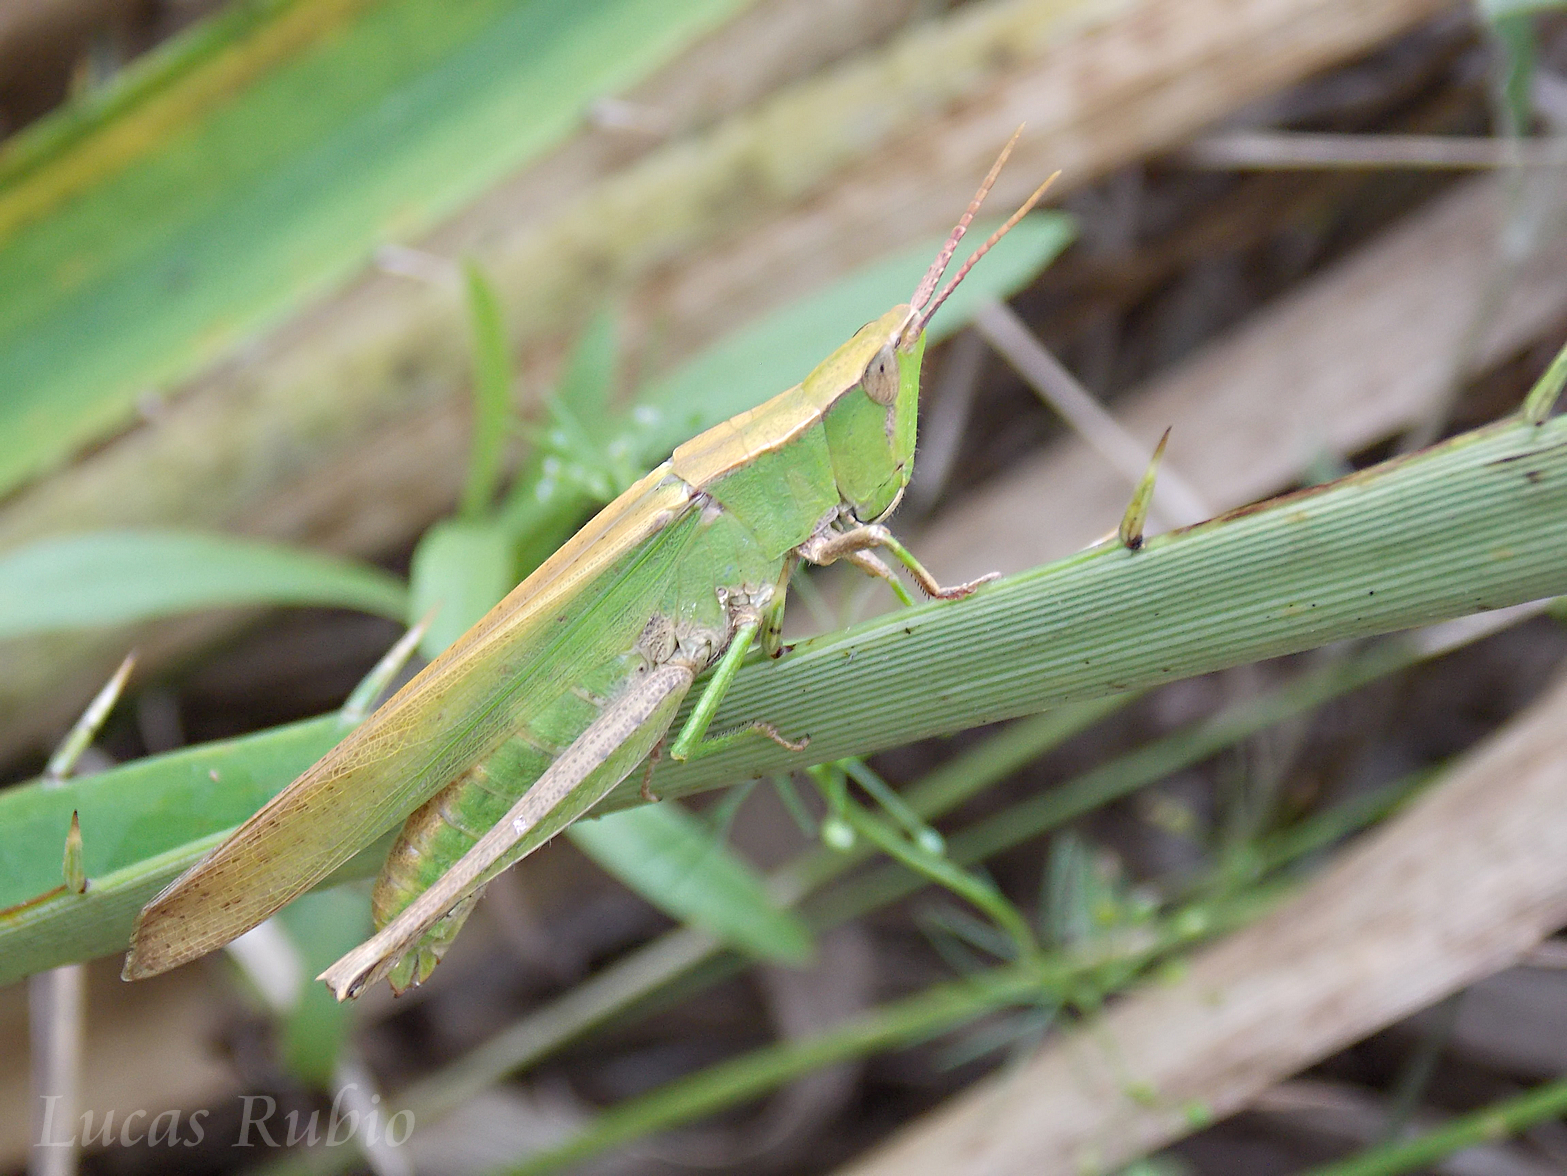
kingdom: Animalia
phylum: Arthropoda
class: Insecta
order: Orthoptera
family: Acrididae
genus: Metaleptea
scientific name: Metaleptea adspersa
